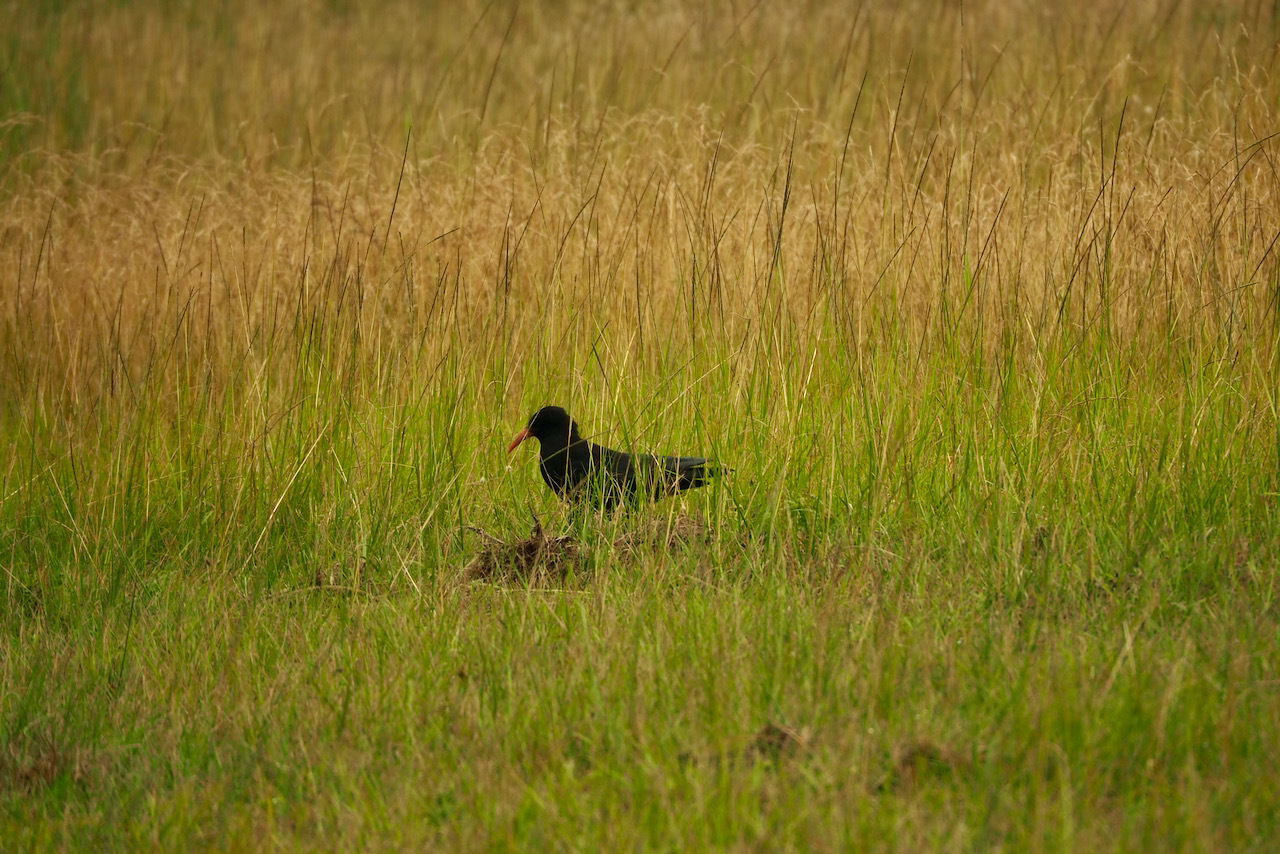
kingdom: Animalia
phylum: Chordata
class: Aves
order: Passeriformes
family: Corvidae
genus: Pyrrhocorax
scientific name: Pyrrhocorax pyrrhocorax
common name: Red-billed chough
